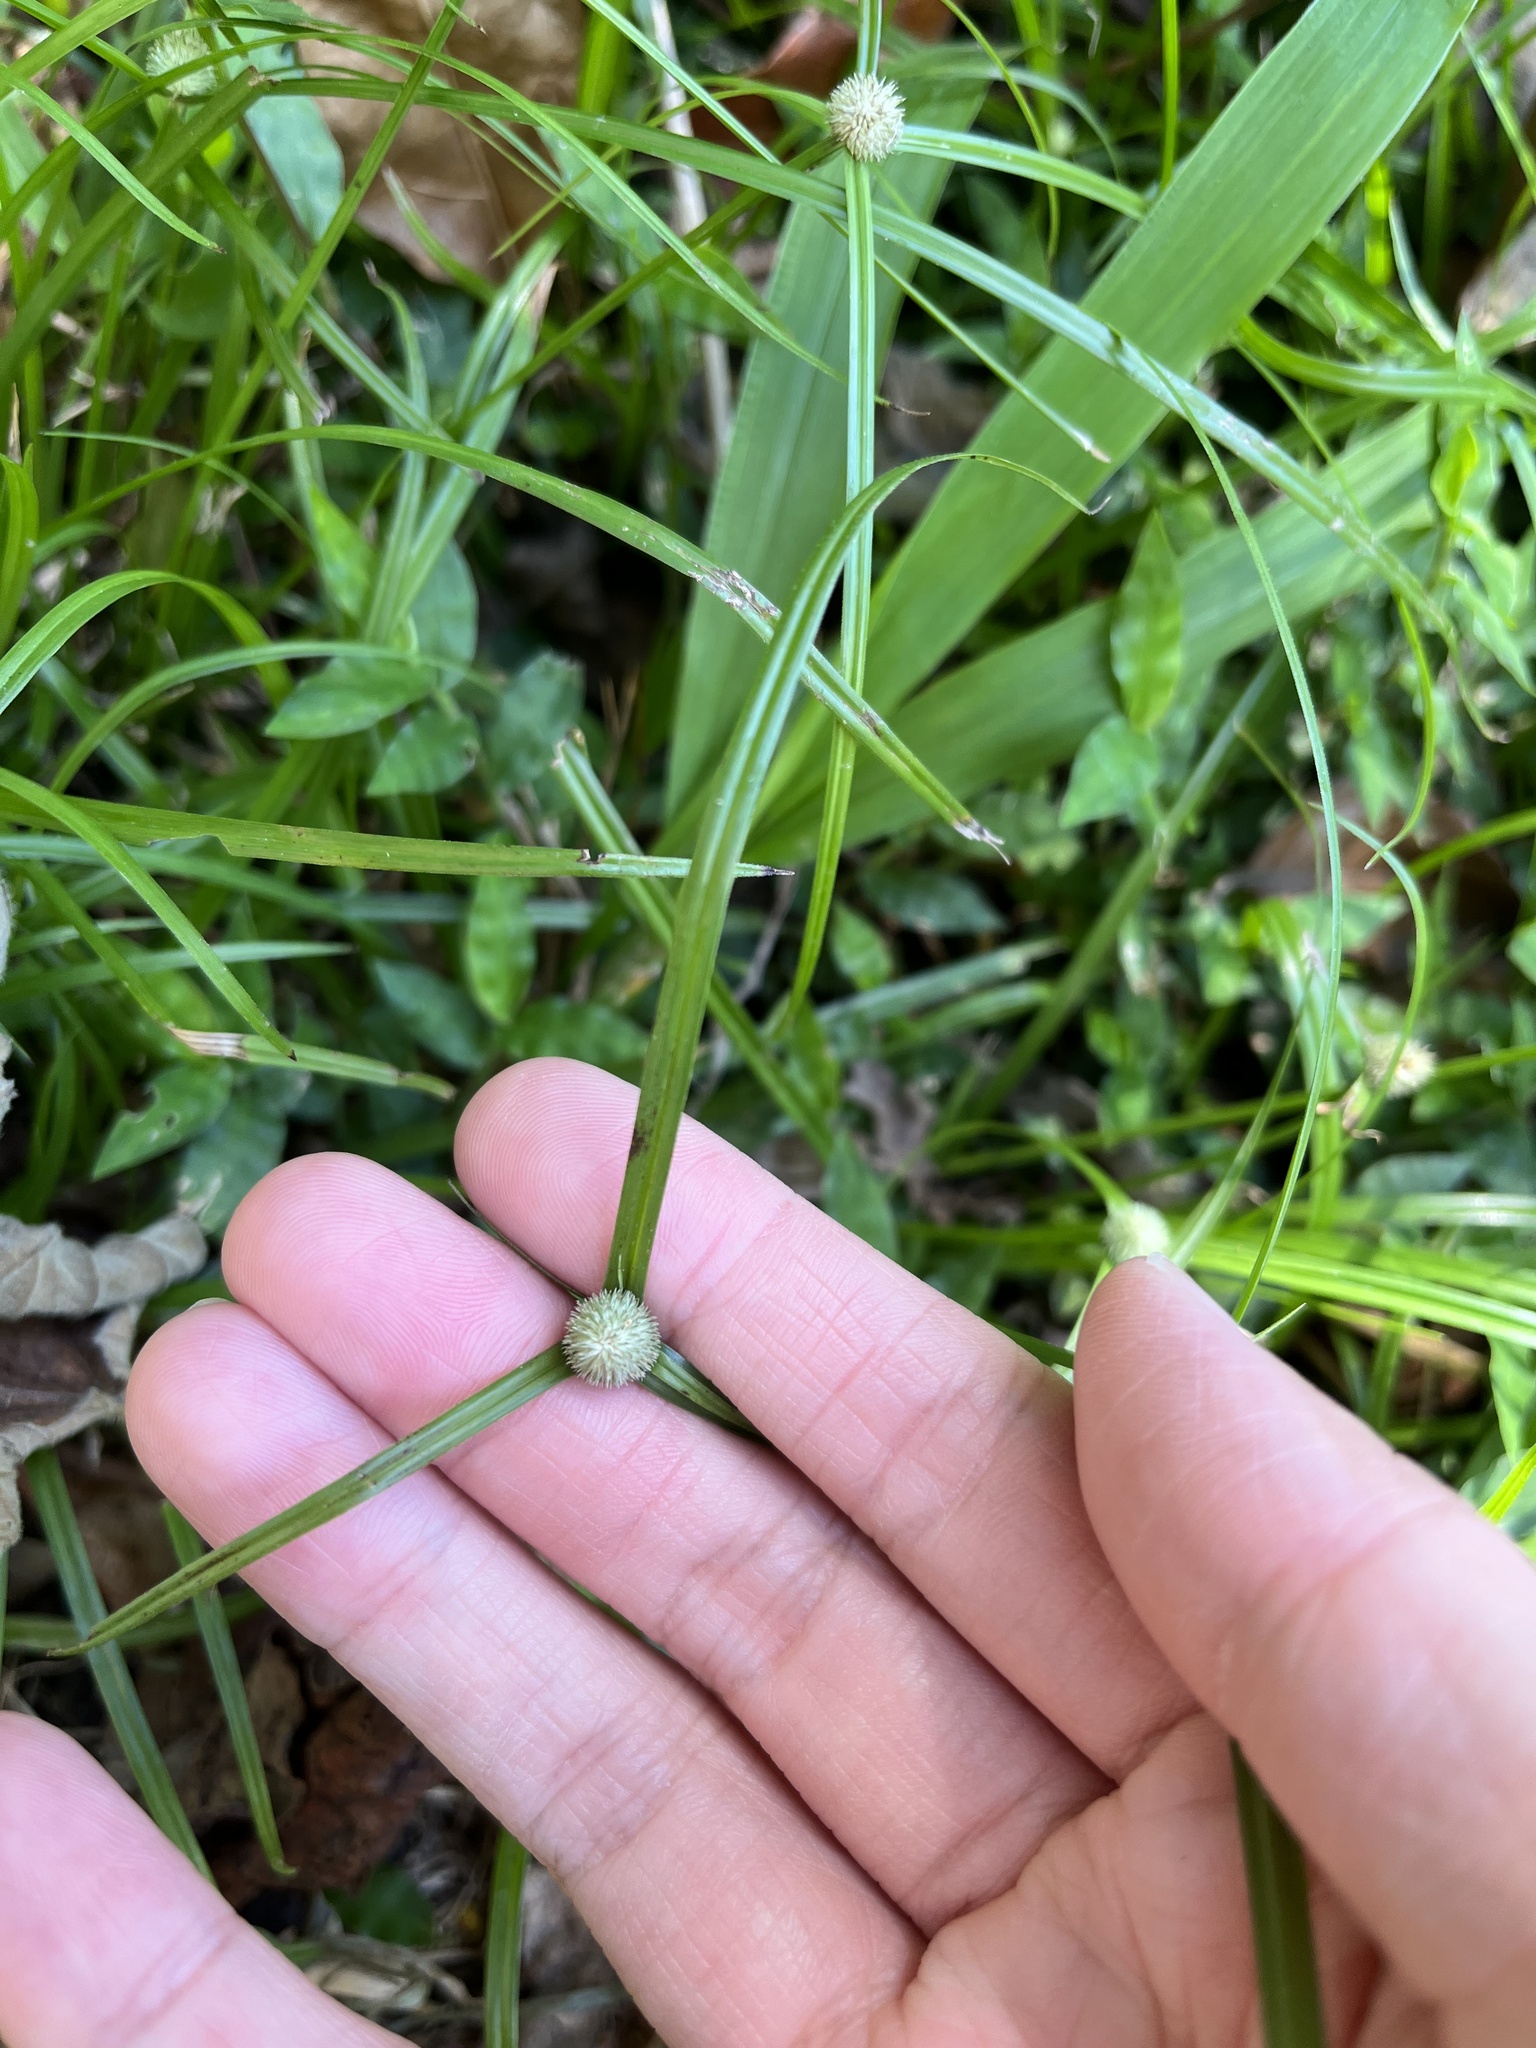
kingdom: Plantae
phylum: Tracheophyta
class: Liliopsida
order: Poales
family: Cyperaceae
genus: Cyperus
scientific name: Cyperus mindorensis
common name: Flatsedge
